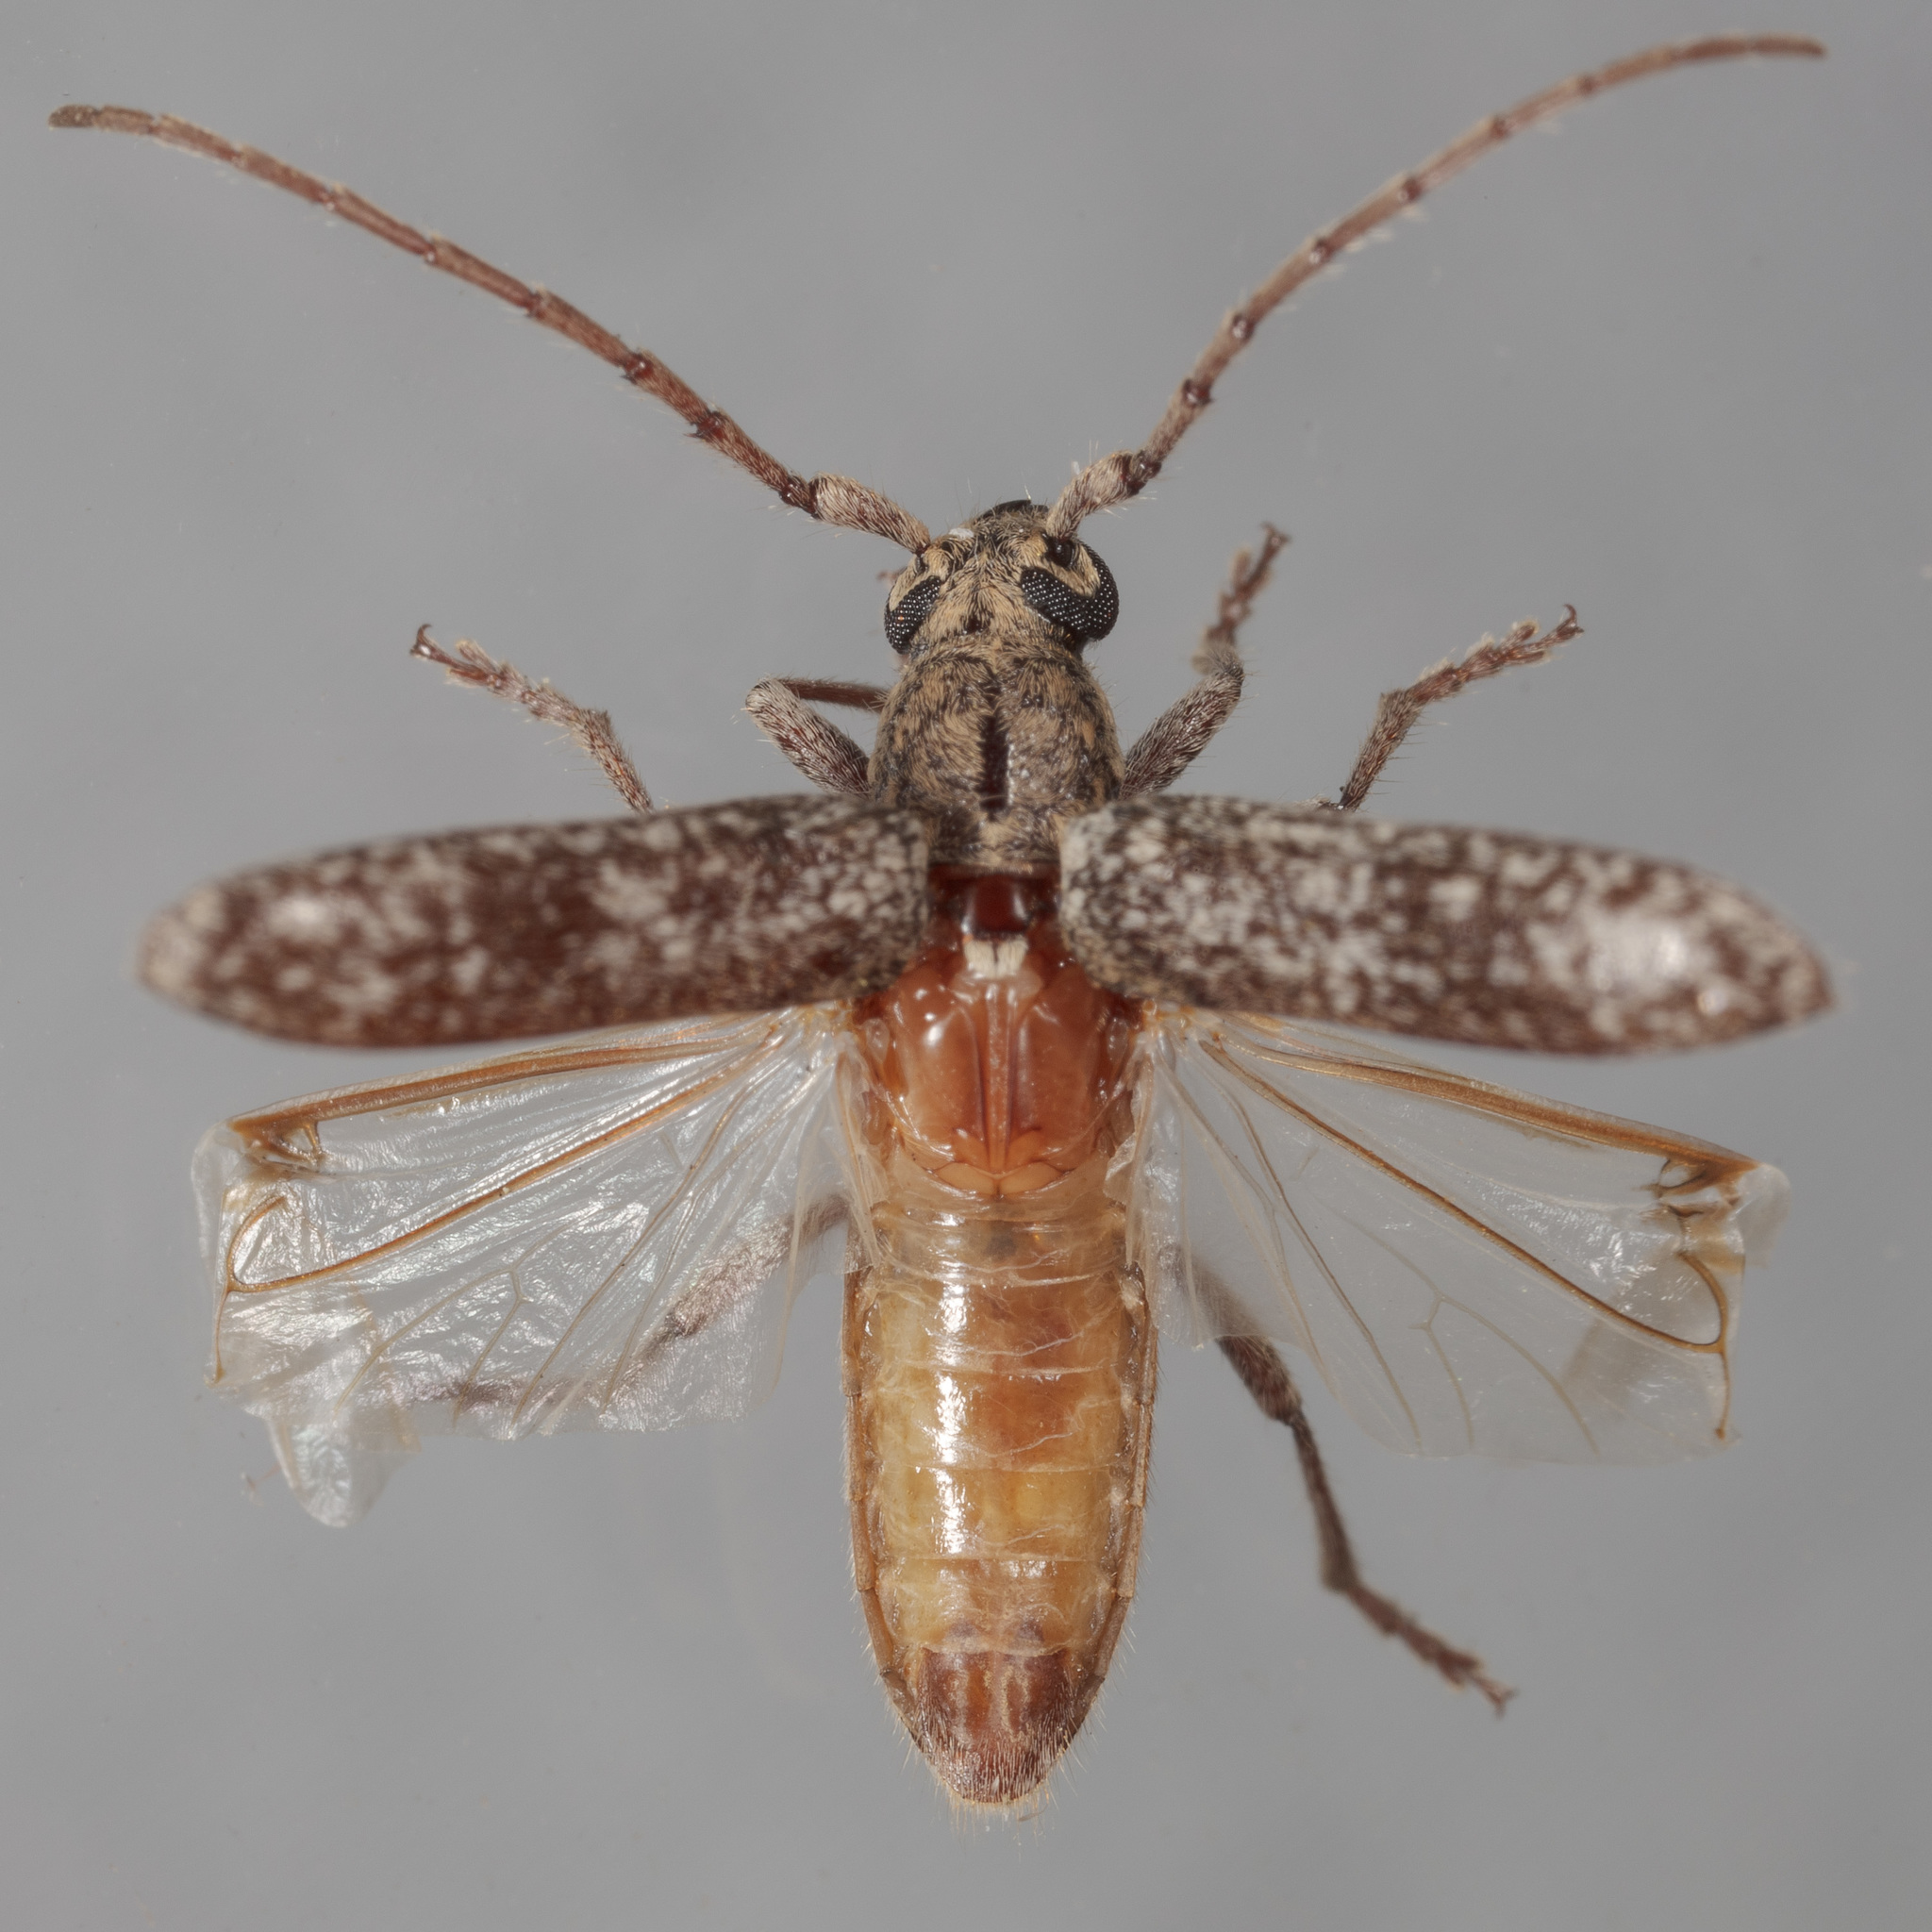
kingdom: Animalia
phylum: Arthropoda
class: Insecta
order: Coleoptera
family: Cerambycidae
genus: Anelaphus
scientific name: Anelaphus debilis
